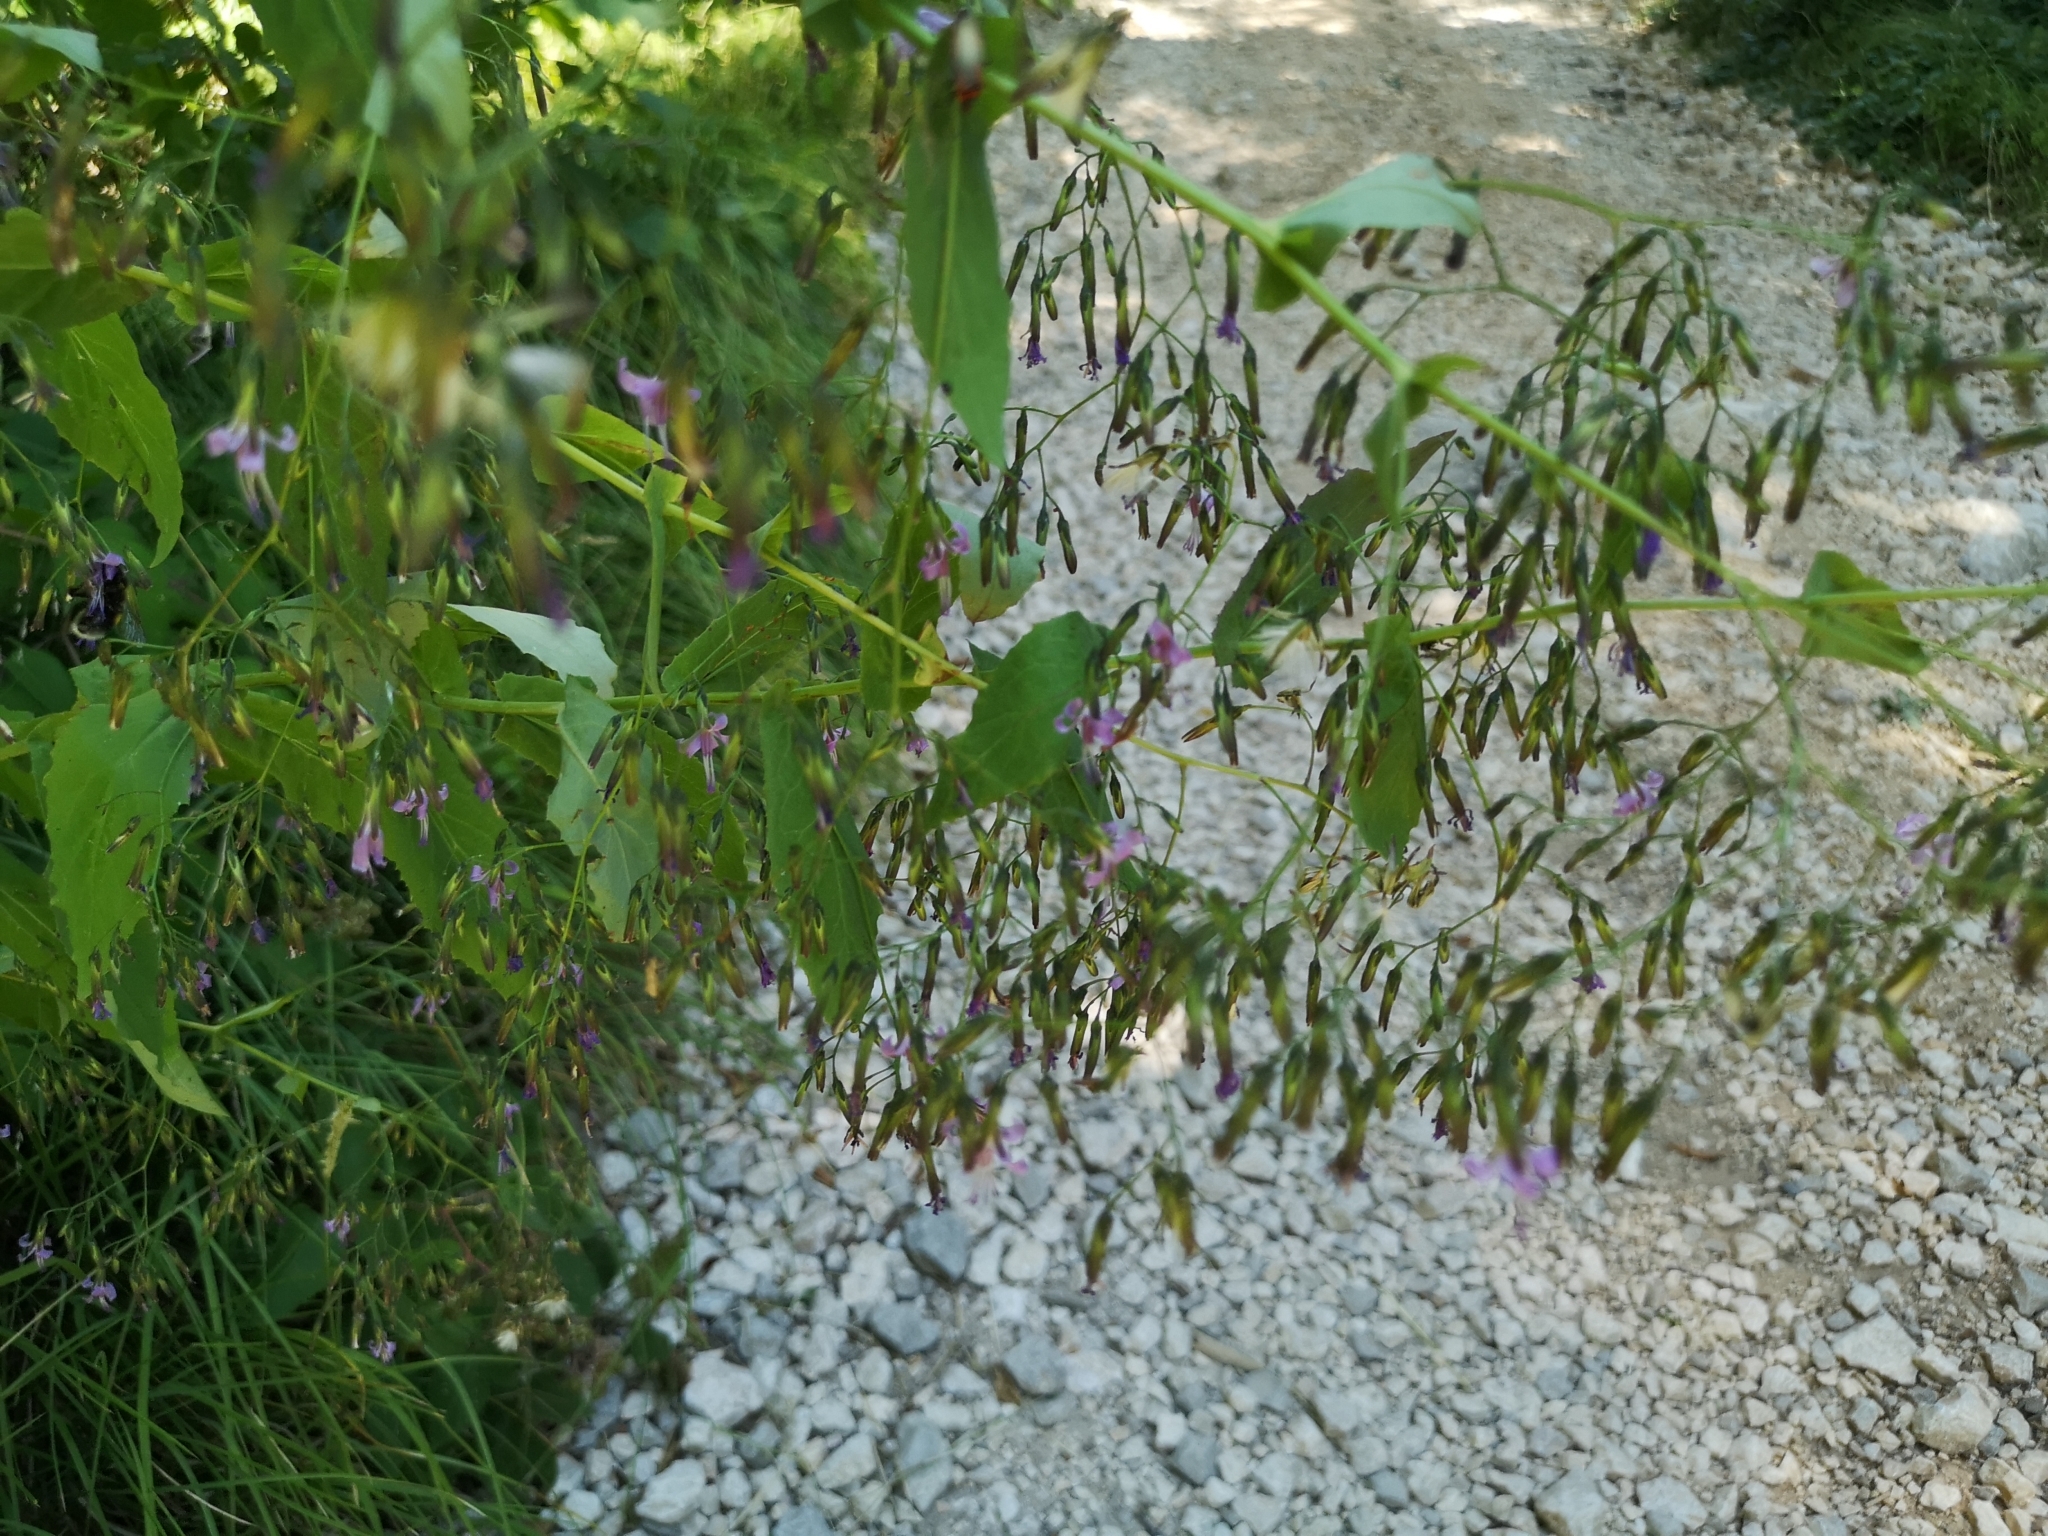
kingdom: Plantae
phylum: Tracheophyta
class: Magnoliopsida
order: Asterales
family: Asteraceae
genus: Prenanthes
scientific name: Prenanthes purpurea
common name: Purple lettuce
